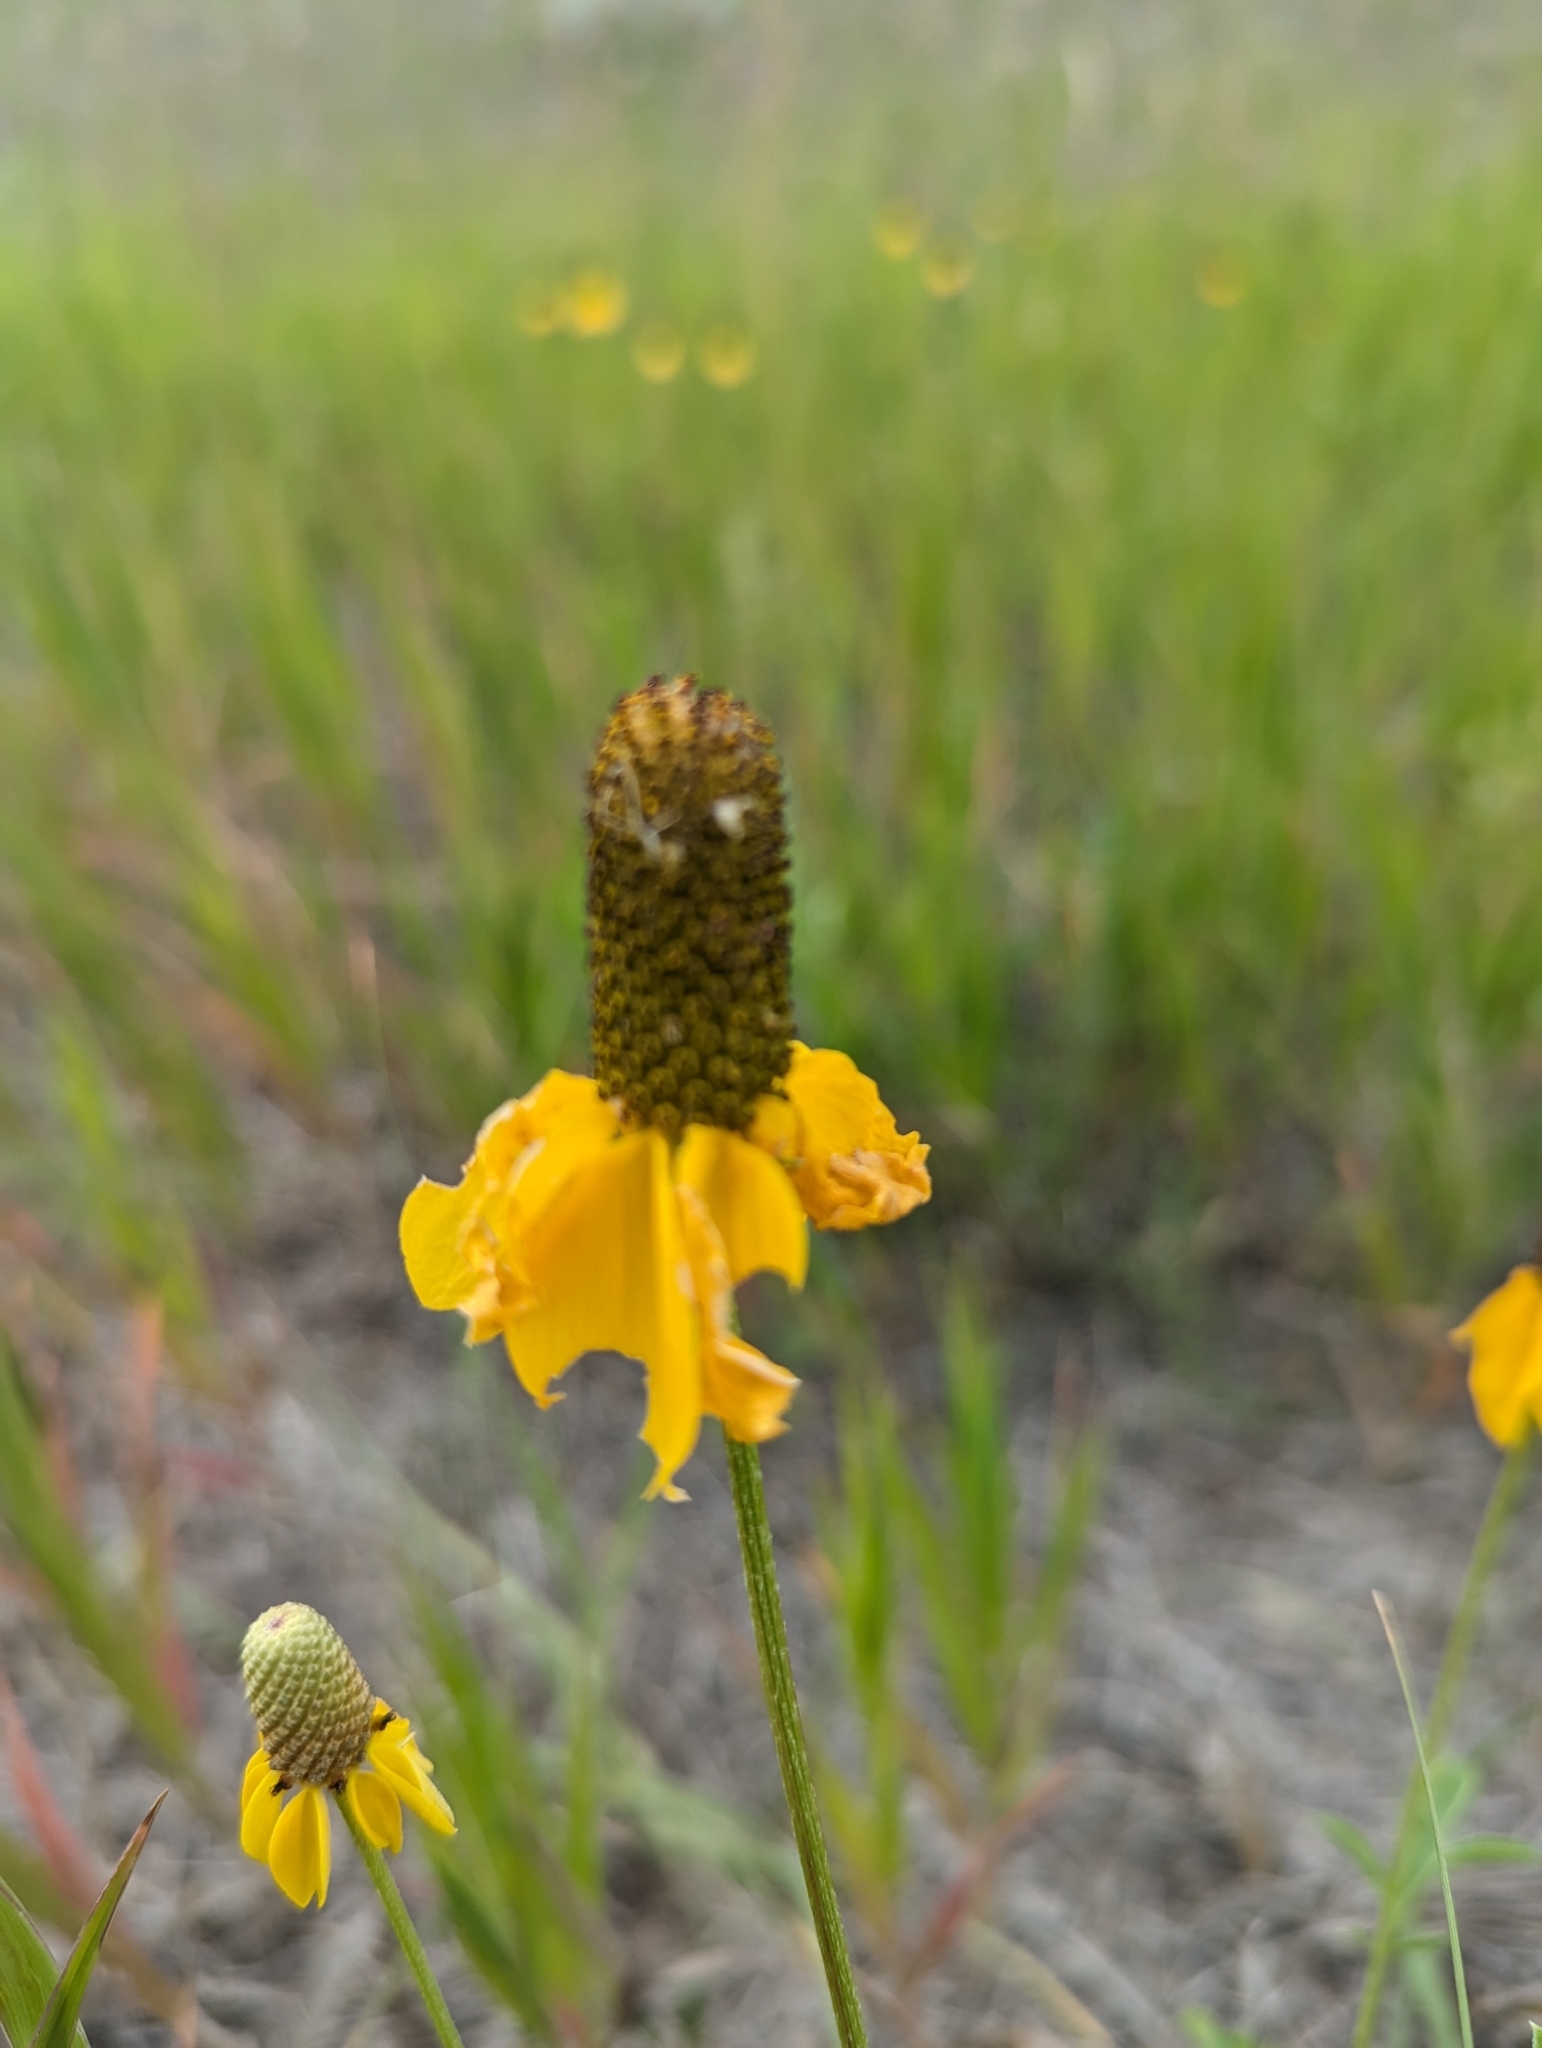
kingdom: Plantae
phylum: Tracheophyta
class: Magnoliopsida
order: Asterales
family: Asteraceae
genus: Ratibida
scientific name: Ratibida columnifera
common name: Prairie coneflower
